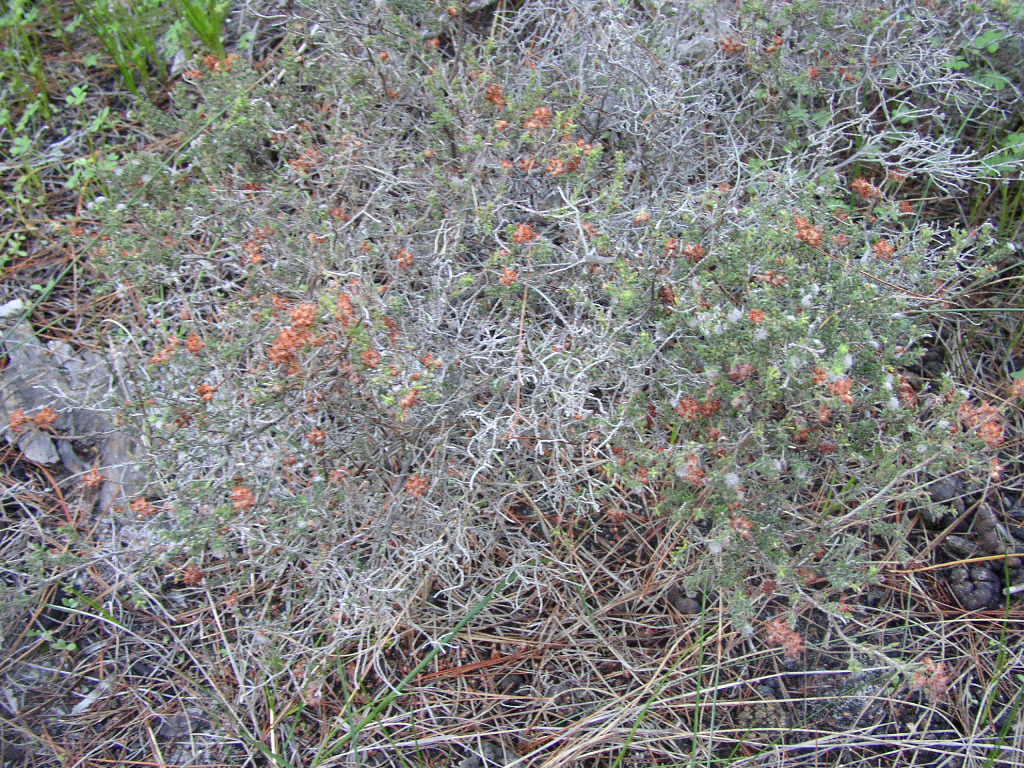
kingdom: Plantae
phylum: Tracheophyta
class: Magnoliopsida
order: Ericales
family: Ericaceae
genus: Erica
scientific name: Erica ericoides
